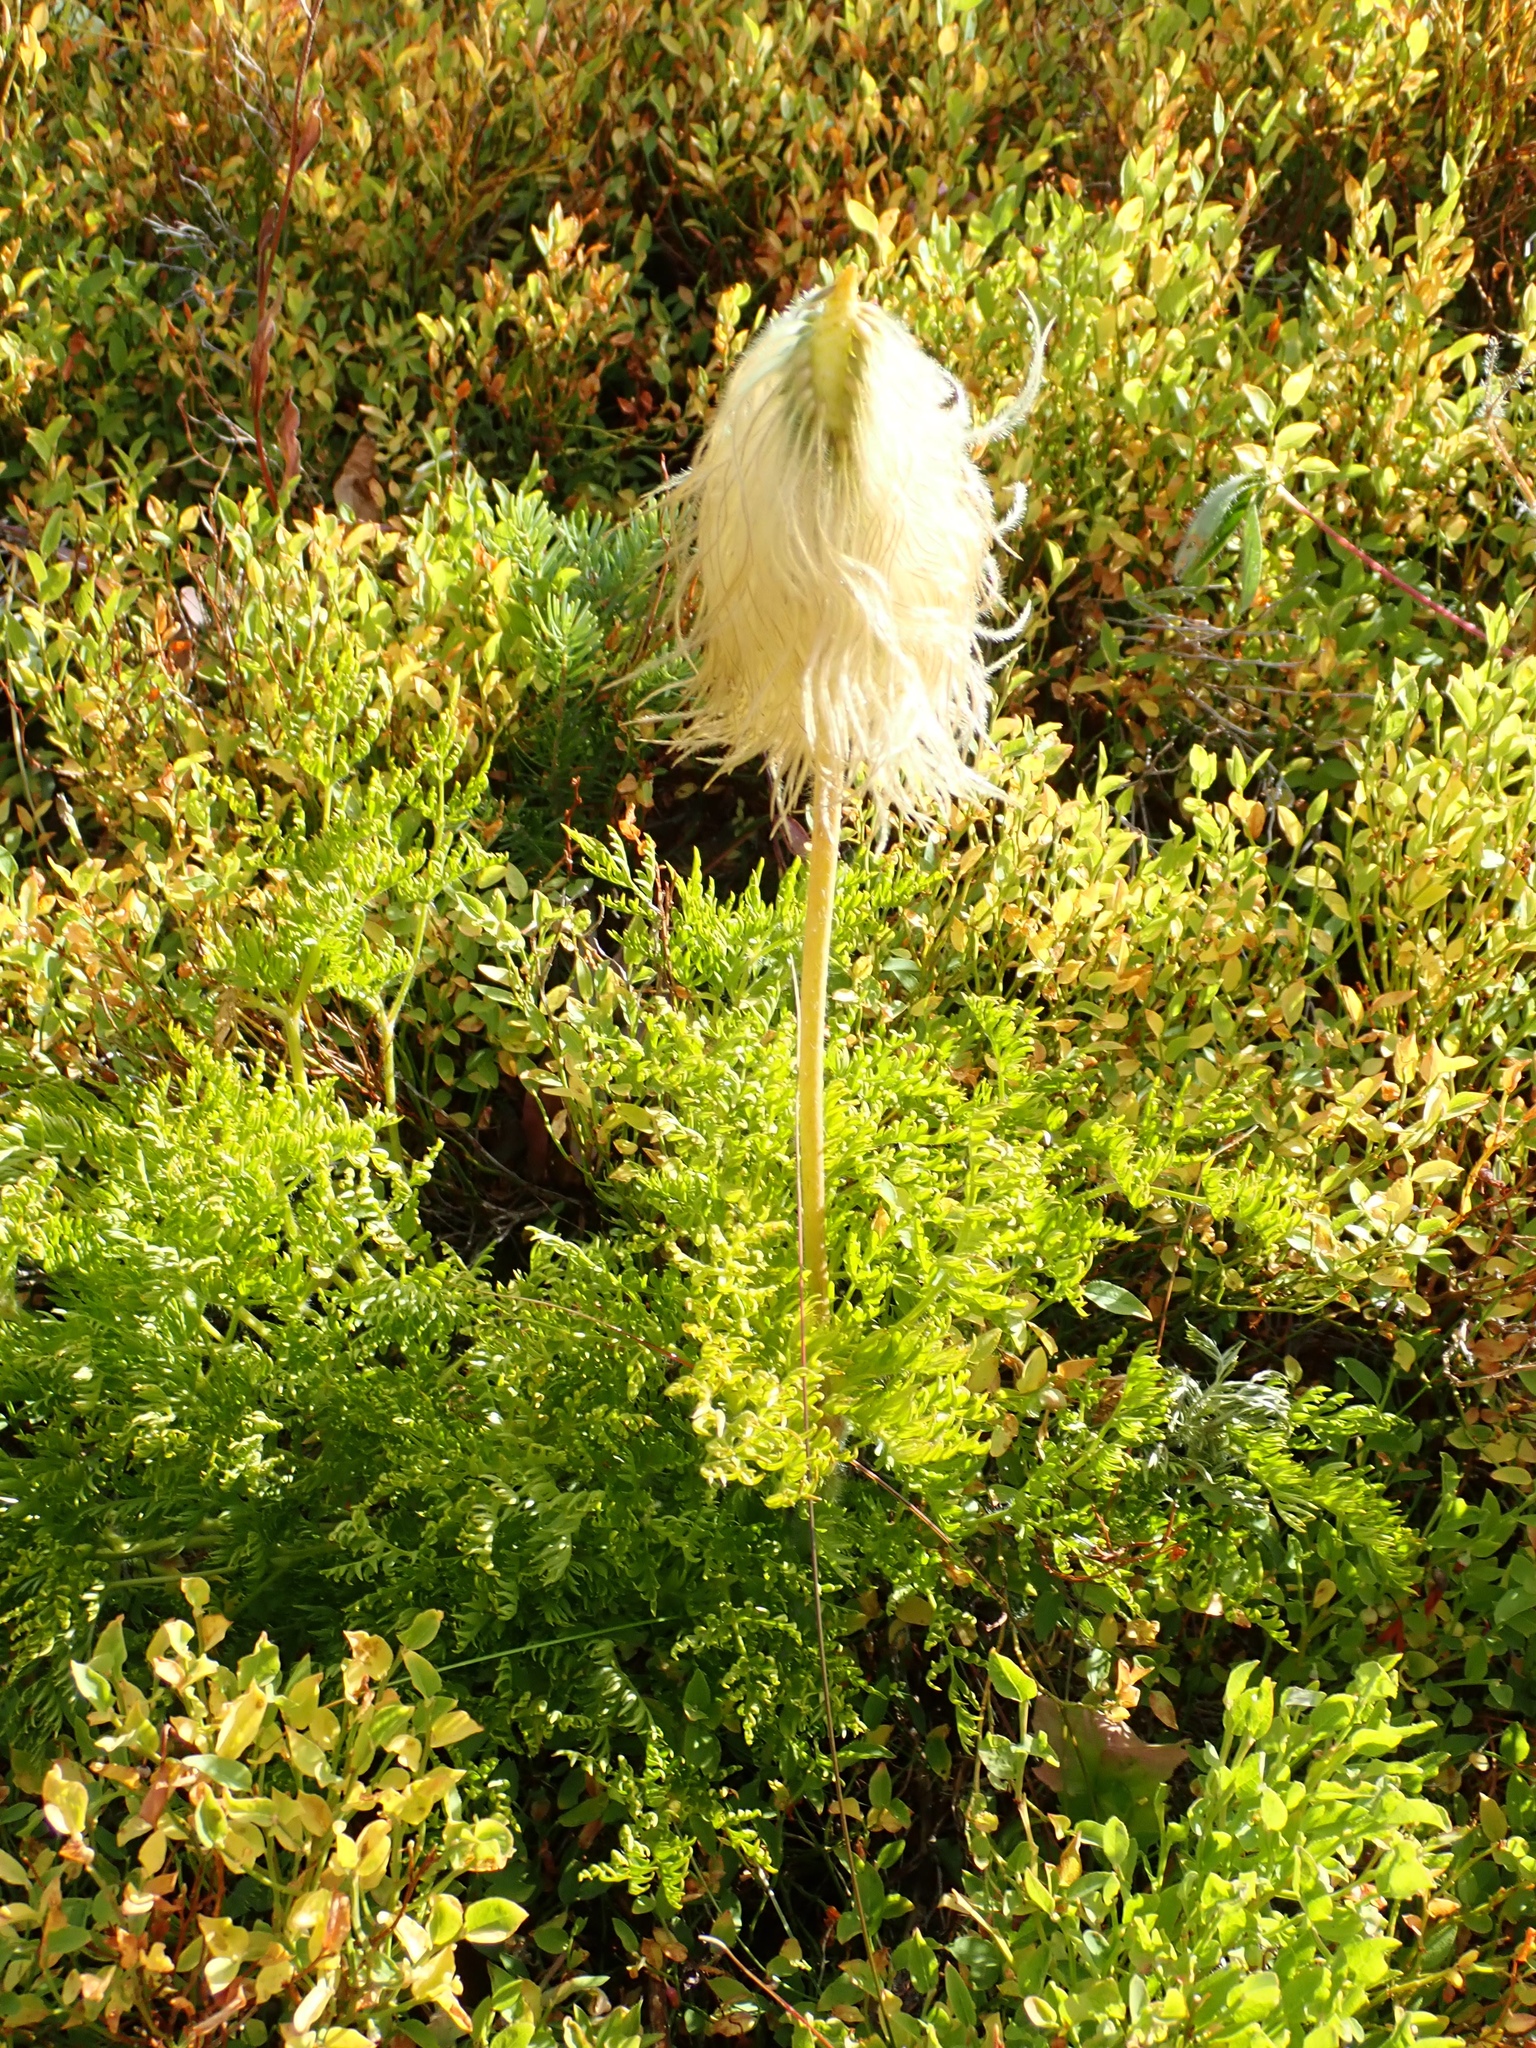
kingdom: Plantae
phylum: Tracheophyta
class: Magnoliopsida
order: Ranunculales
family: Ranunculaceae
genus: Pulsatilla
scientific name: Pulsatilla occidentalis
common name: Mountain pasqueflower
